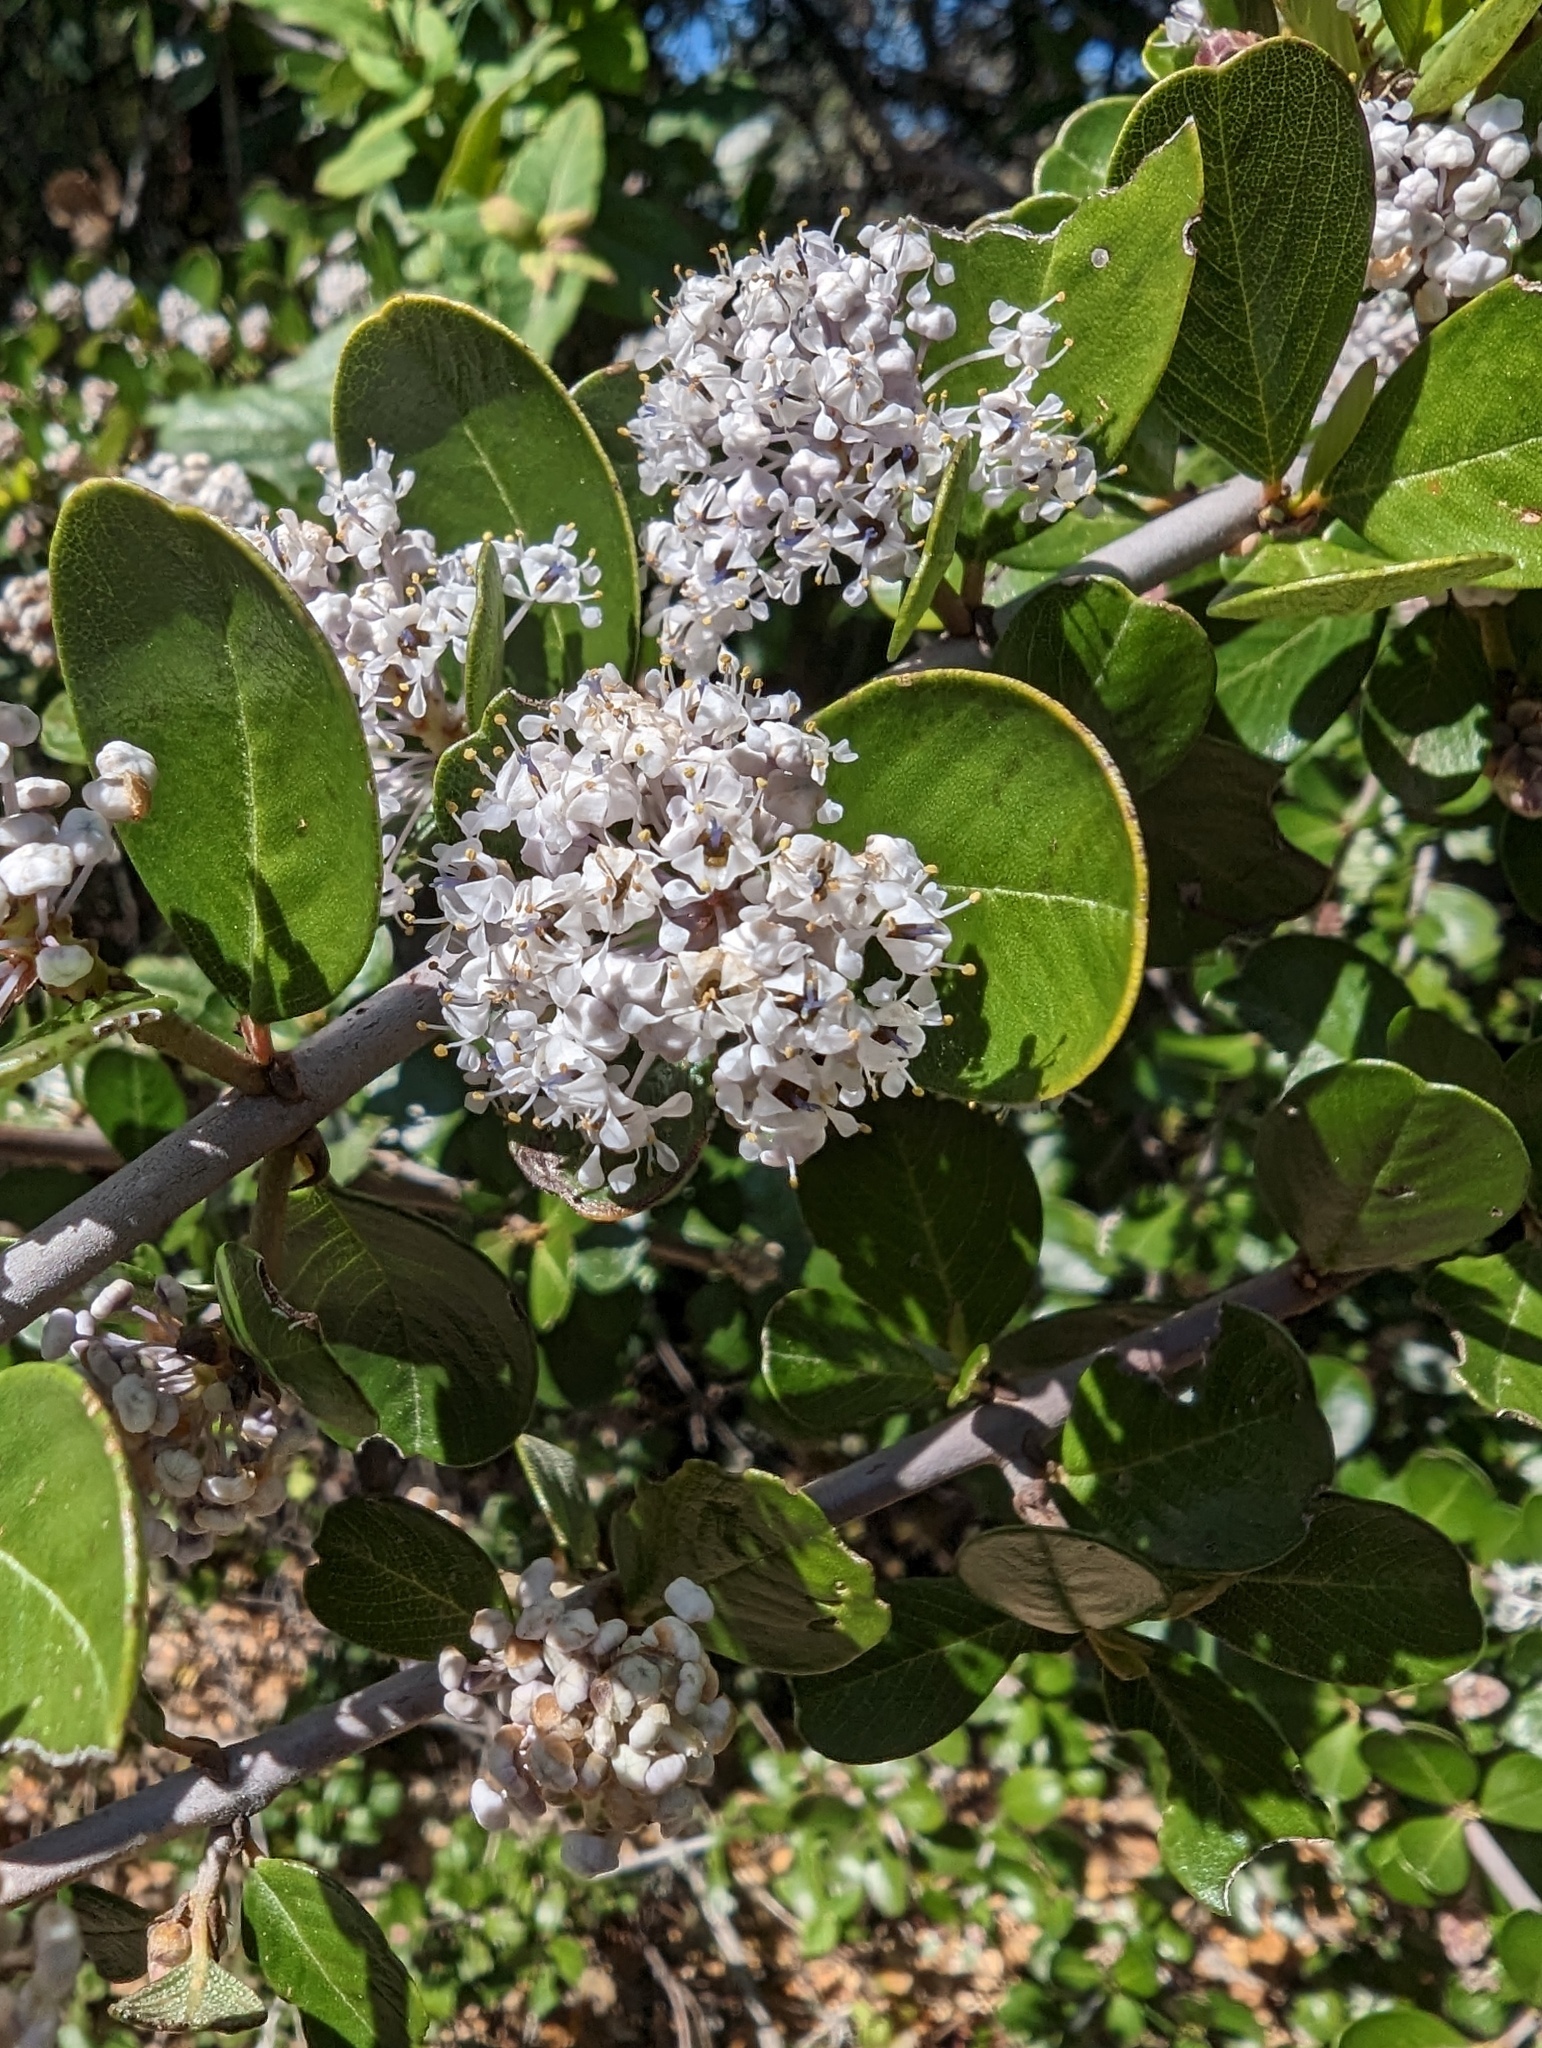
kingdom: Plantae
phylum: Tracheophyta
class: Magnoliopsida
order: Rosales
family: Rhamnaceae
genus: Ceanothus
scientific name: Ceanothus cuneatus
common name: Cuneate ceanothus
